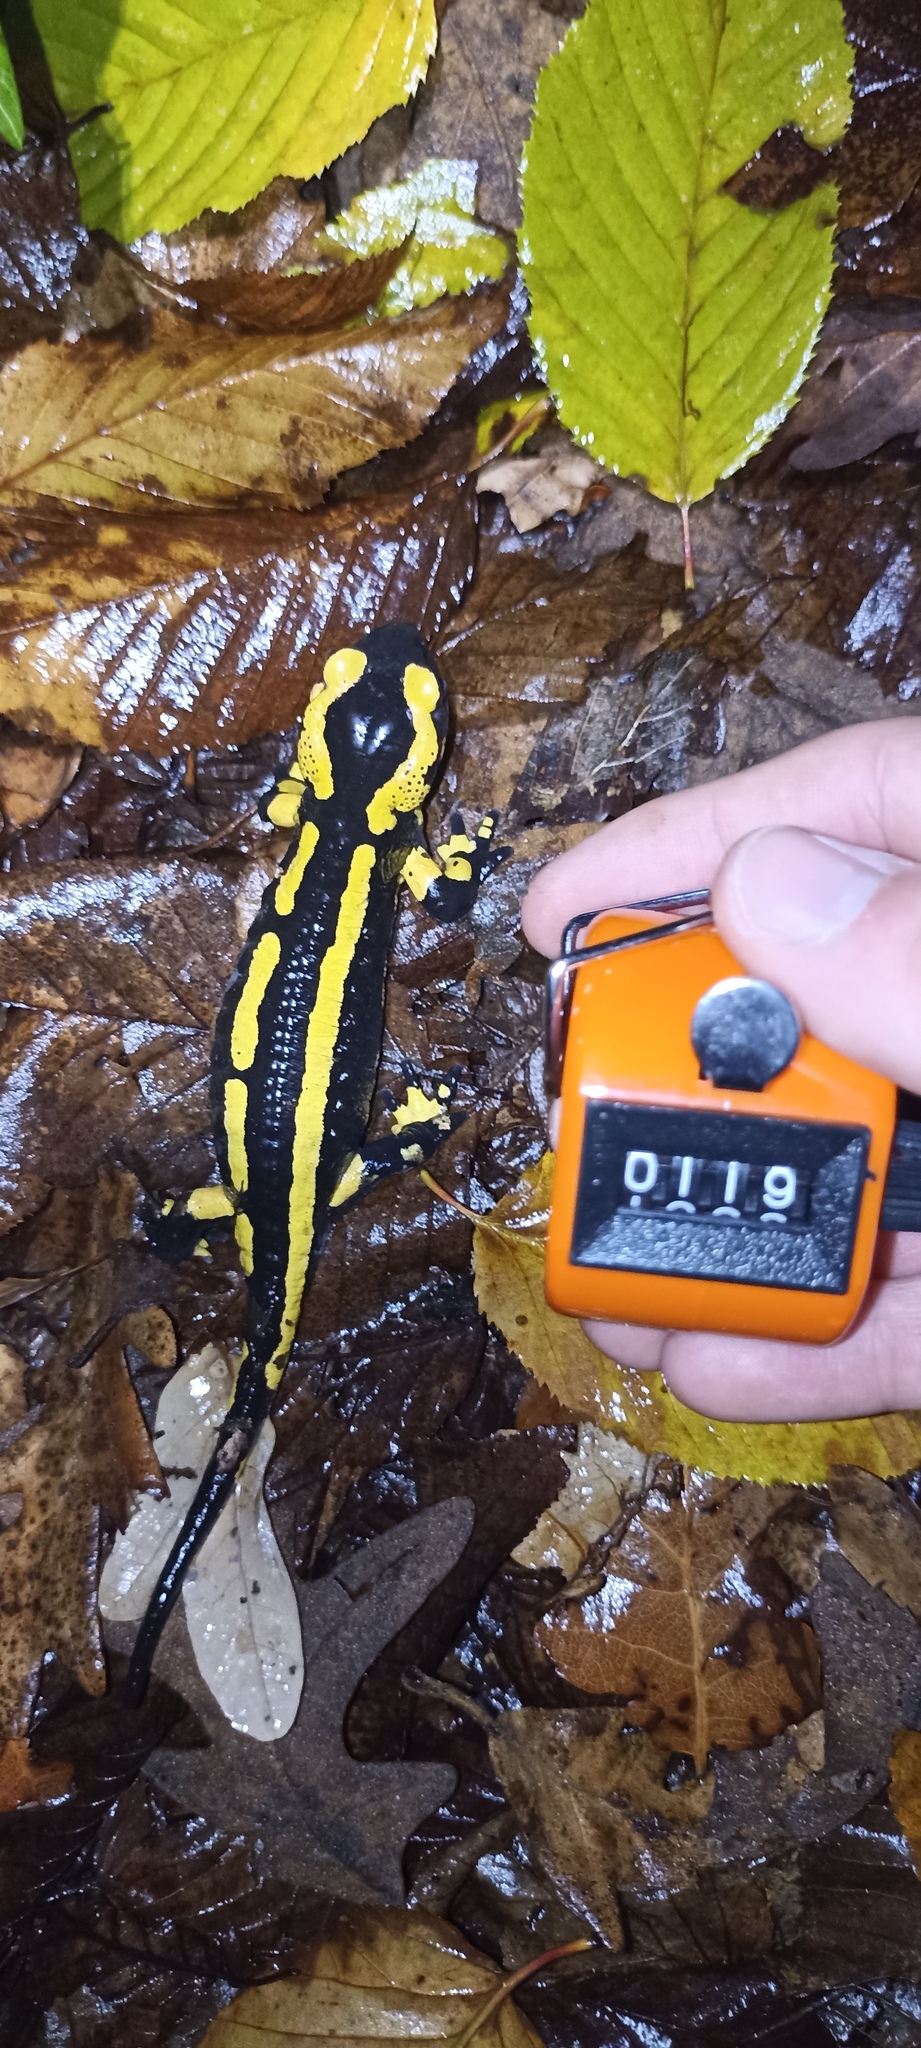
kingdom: Animalia
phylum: Chordata
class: Amphibia
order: Caudata
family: Salamandridae
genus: Salamandra
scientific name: Salamandra salamandra
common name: Fire salamander
